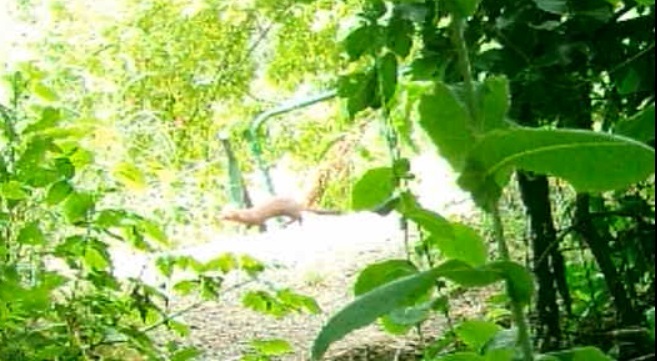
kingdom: Animalia
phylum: Chordata
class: Mammalia
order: Carnivora
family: Mustelidae
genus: Mustela
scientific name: Mustela
